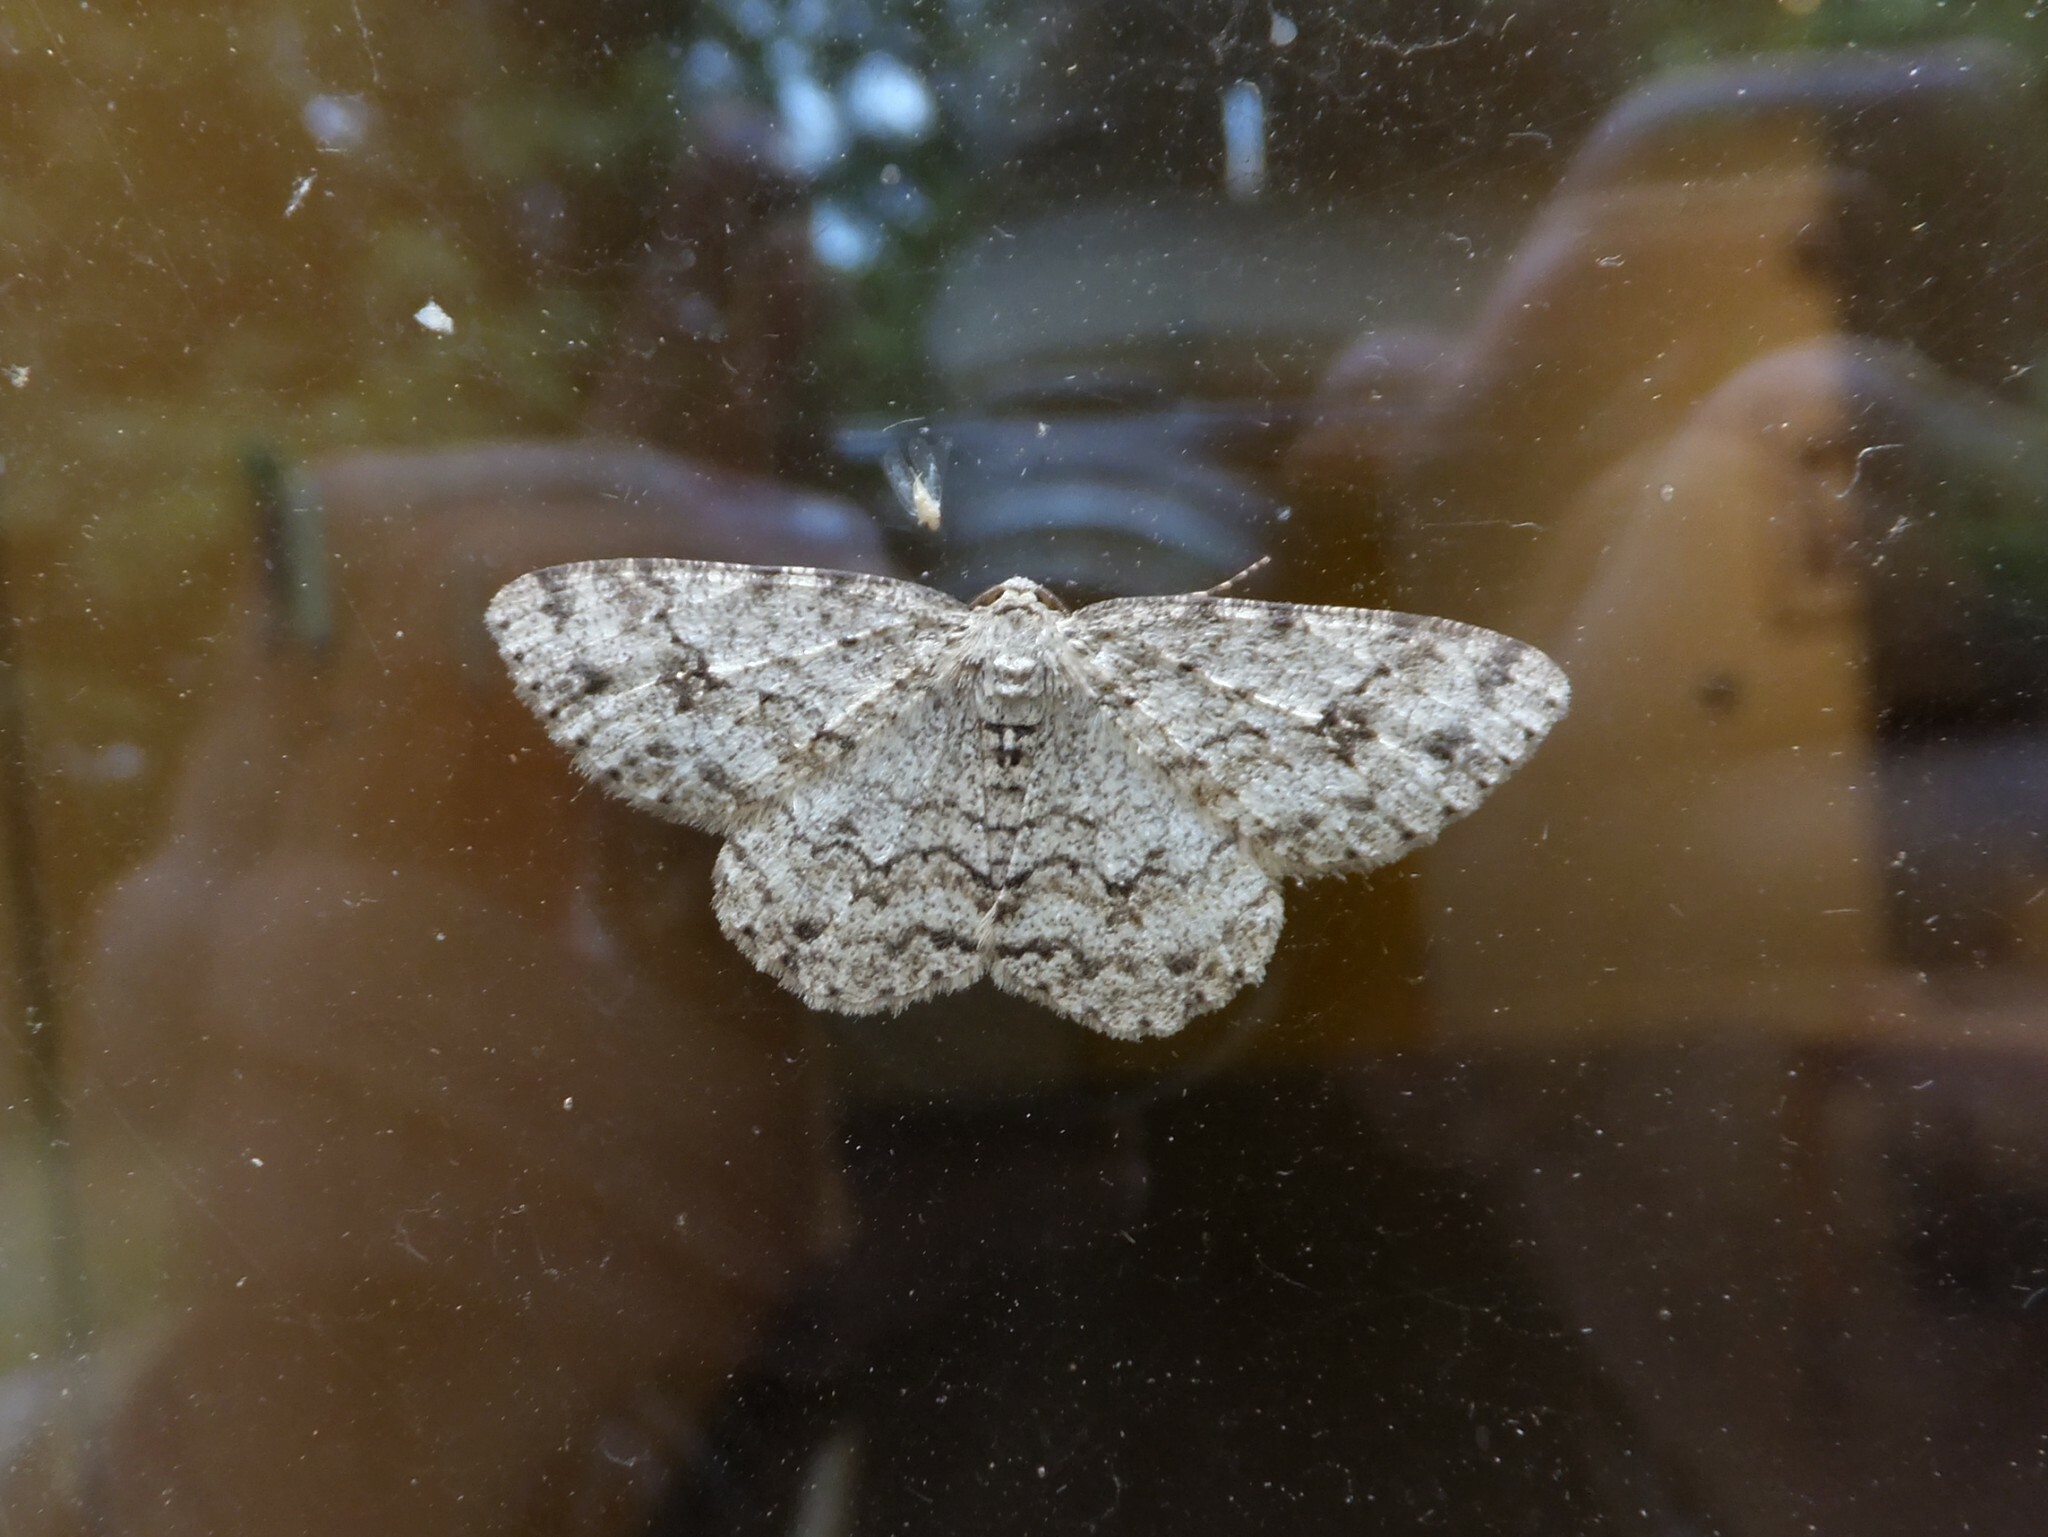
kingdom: Animalia
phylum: Arthropoda
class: Insecta
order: Lepidoptera
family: Geometridae
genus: Ectropis
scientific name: Ectropis crepuscularia
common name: Engrailed
